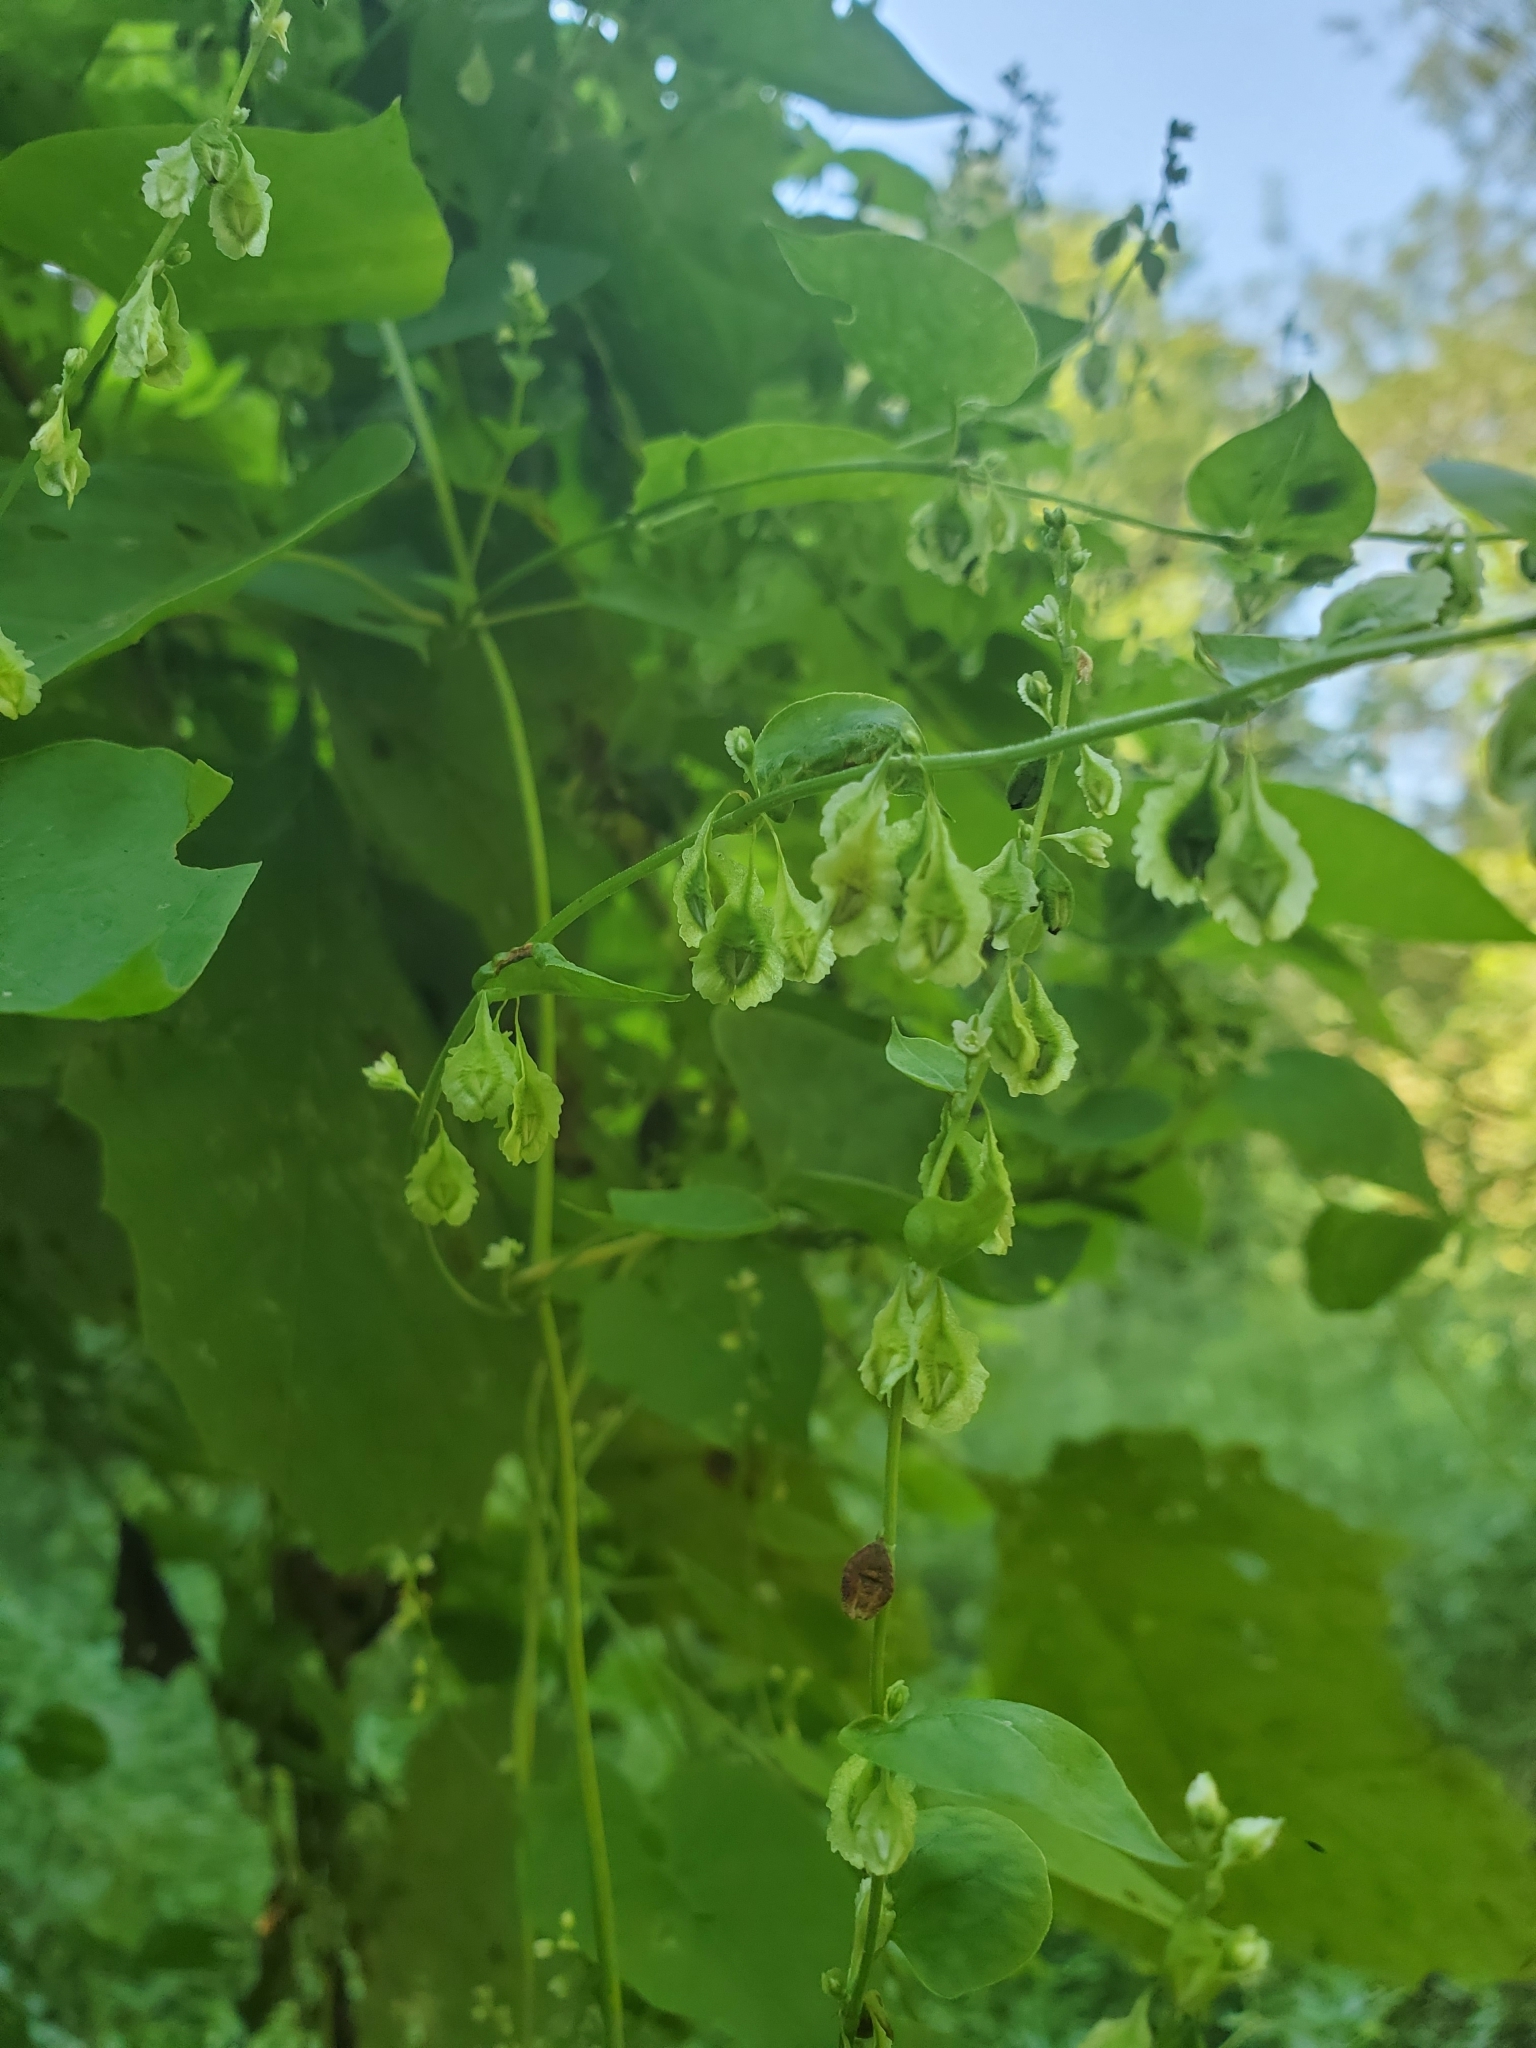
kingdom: Plantae
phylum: Tracheophyta
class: Magnoliopsida
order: Caryophyllales
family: Polygonaceae
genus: Fallopia
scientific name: Fallopia scandens
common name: Climbing false buckwheat
